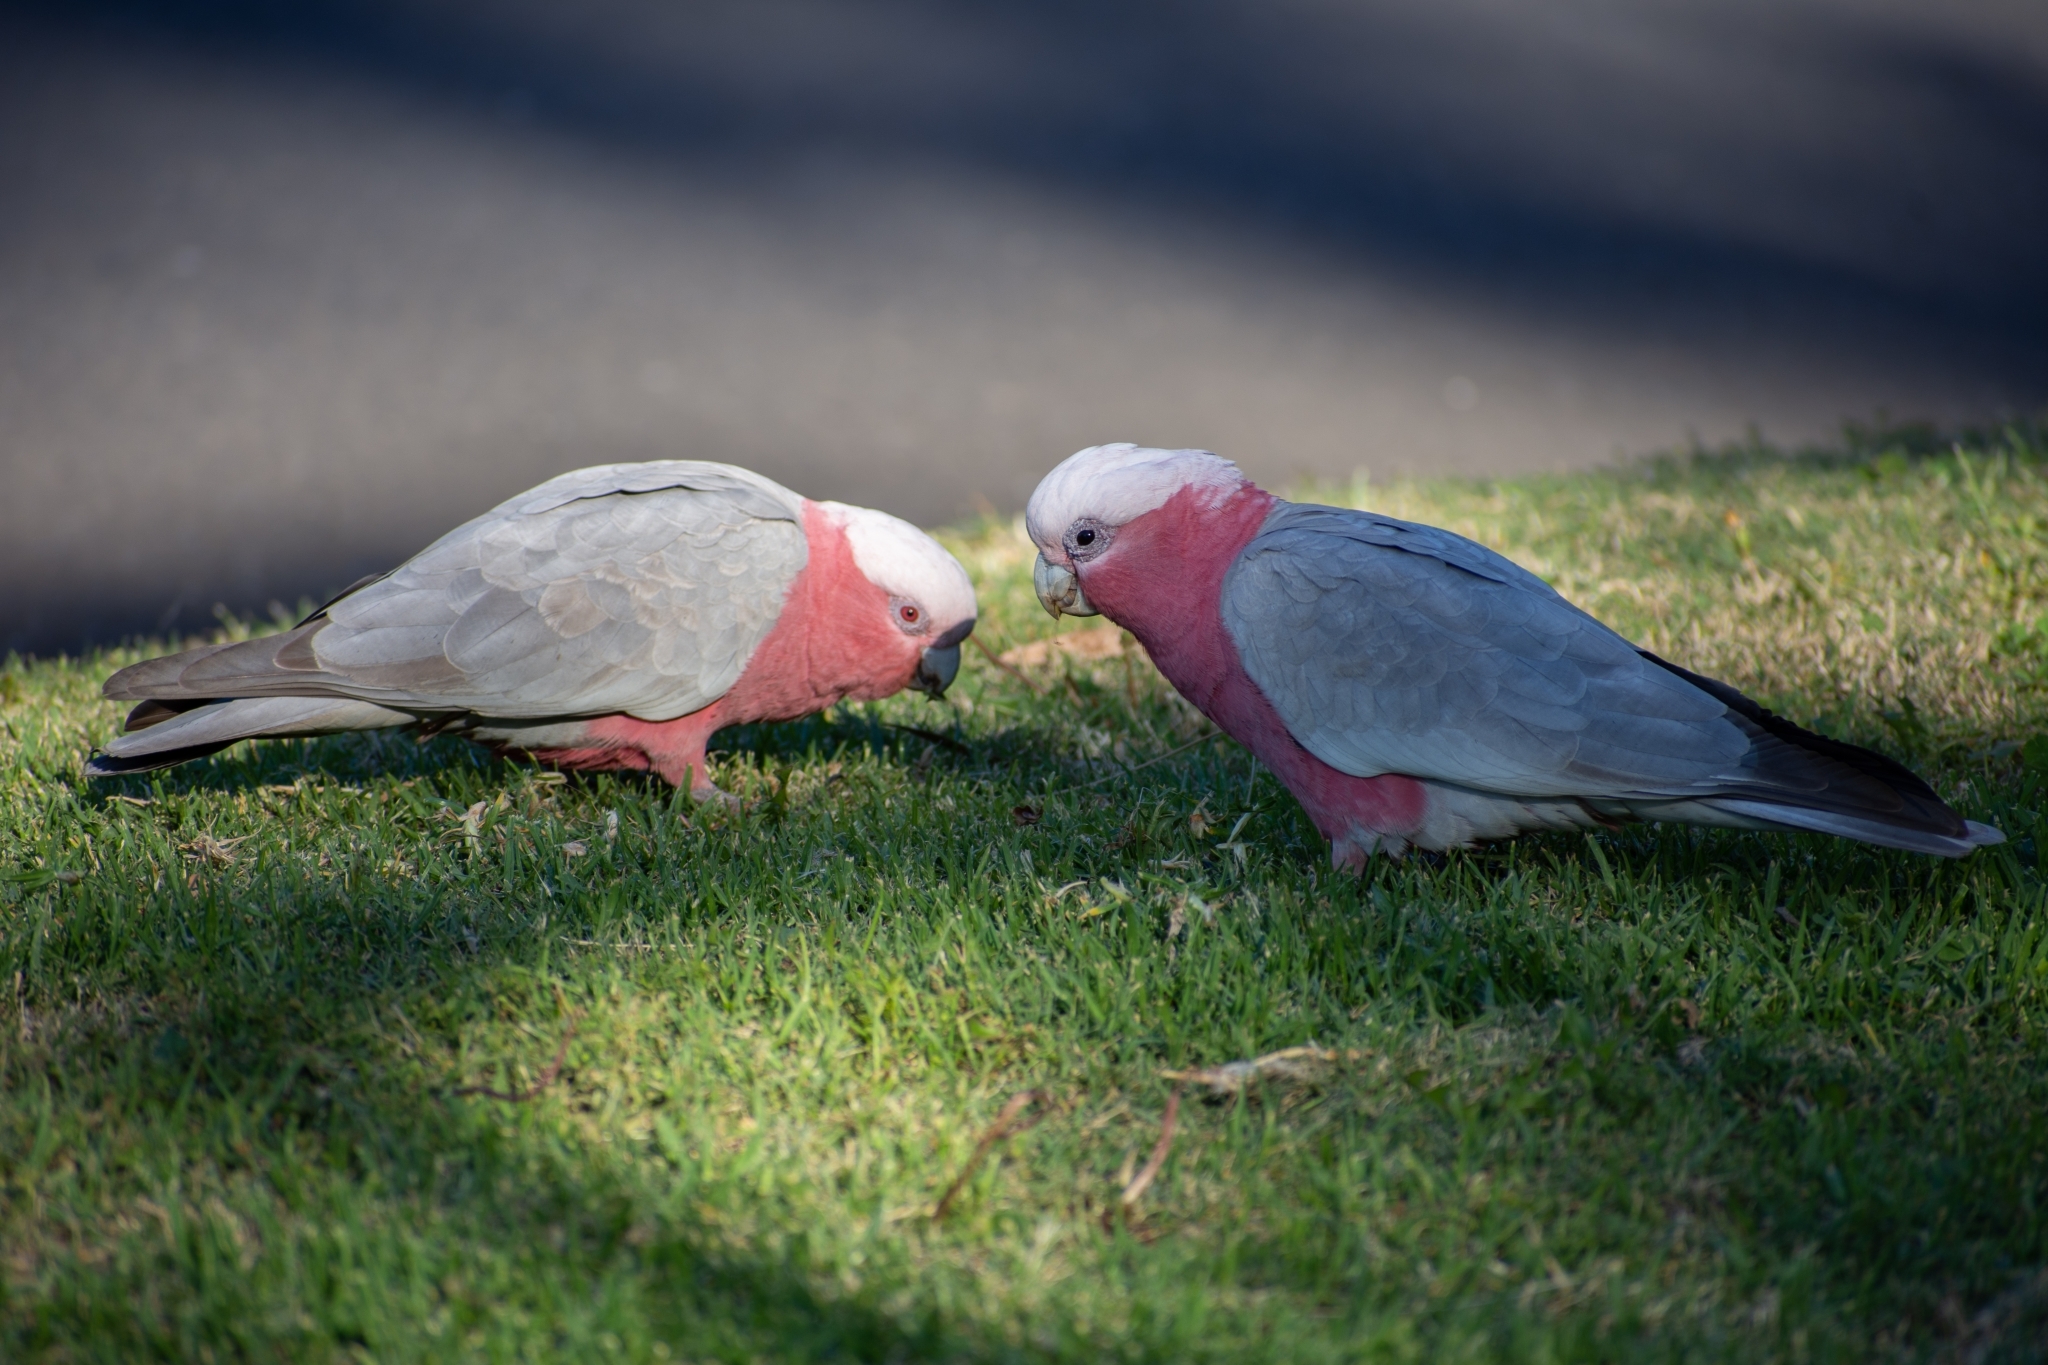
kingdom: Animalia
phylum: Chordata
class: Aves
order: Psittaciformes
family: Psittacidae
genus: Eolophus
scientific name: Eolophus roseicapilla
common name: Galah
